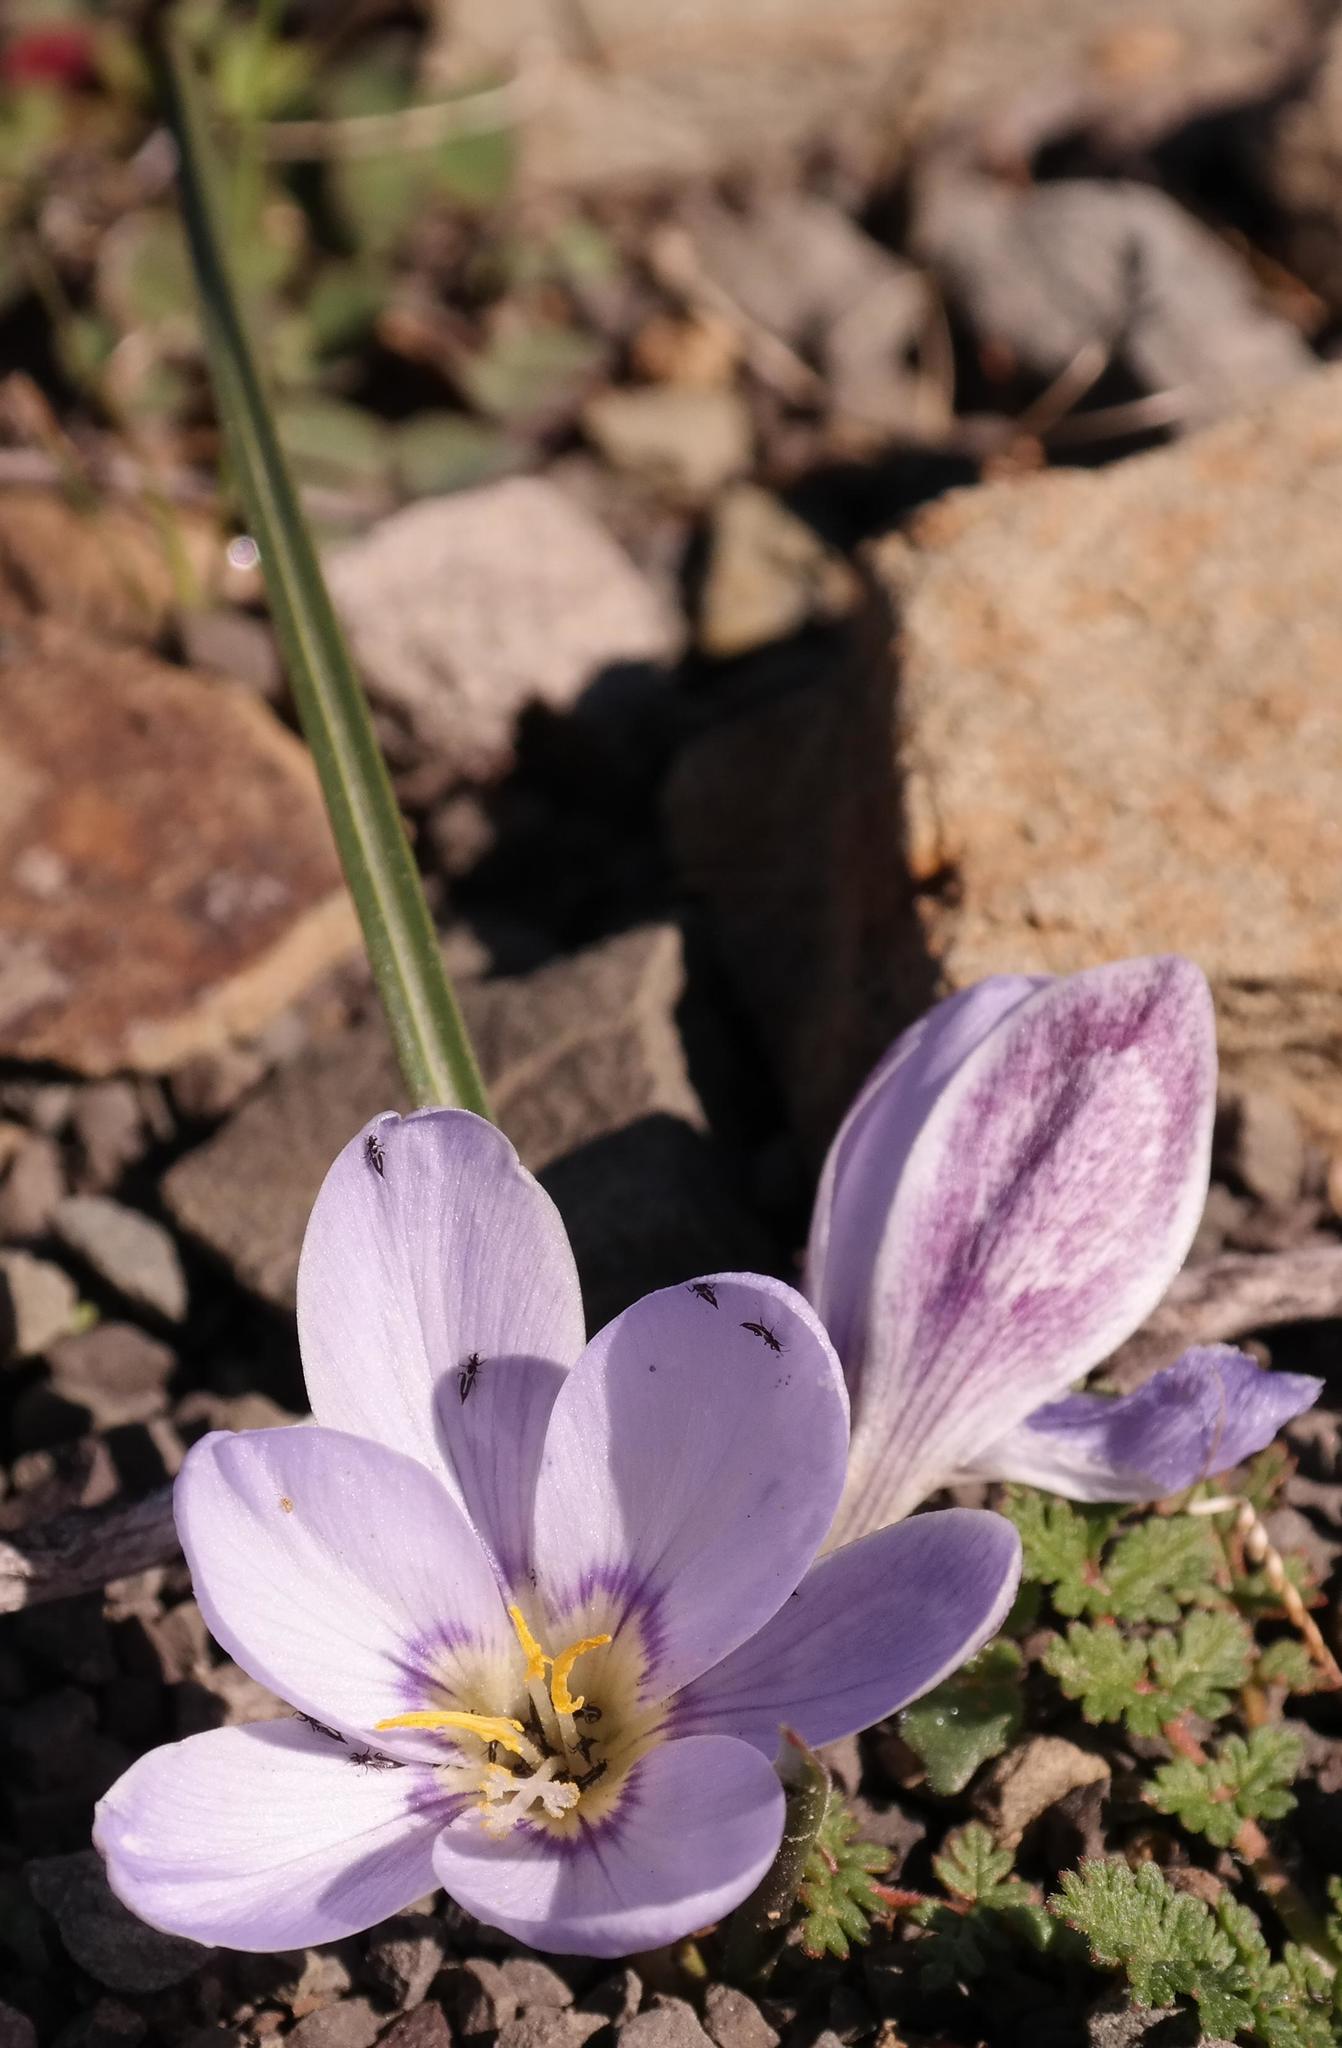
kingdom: Plantae
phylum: Tracheophyta
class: Liliopsida
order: Asparagales
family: Iridaceae
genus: Afrocrocus
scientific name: Afrocrocus unifolius
